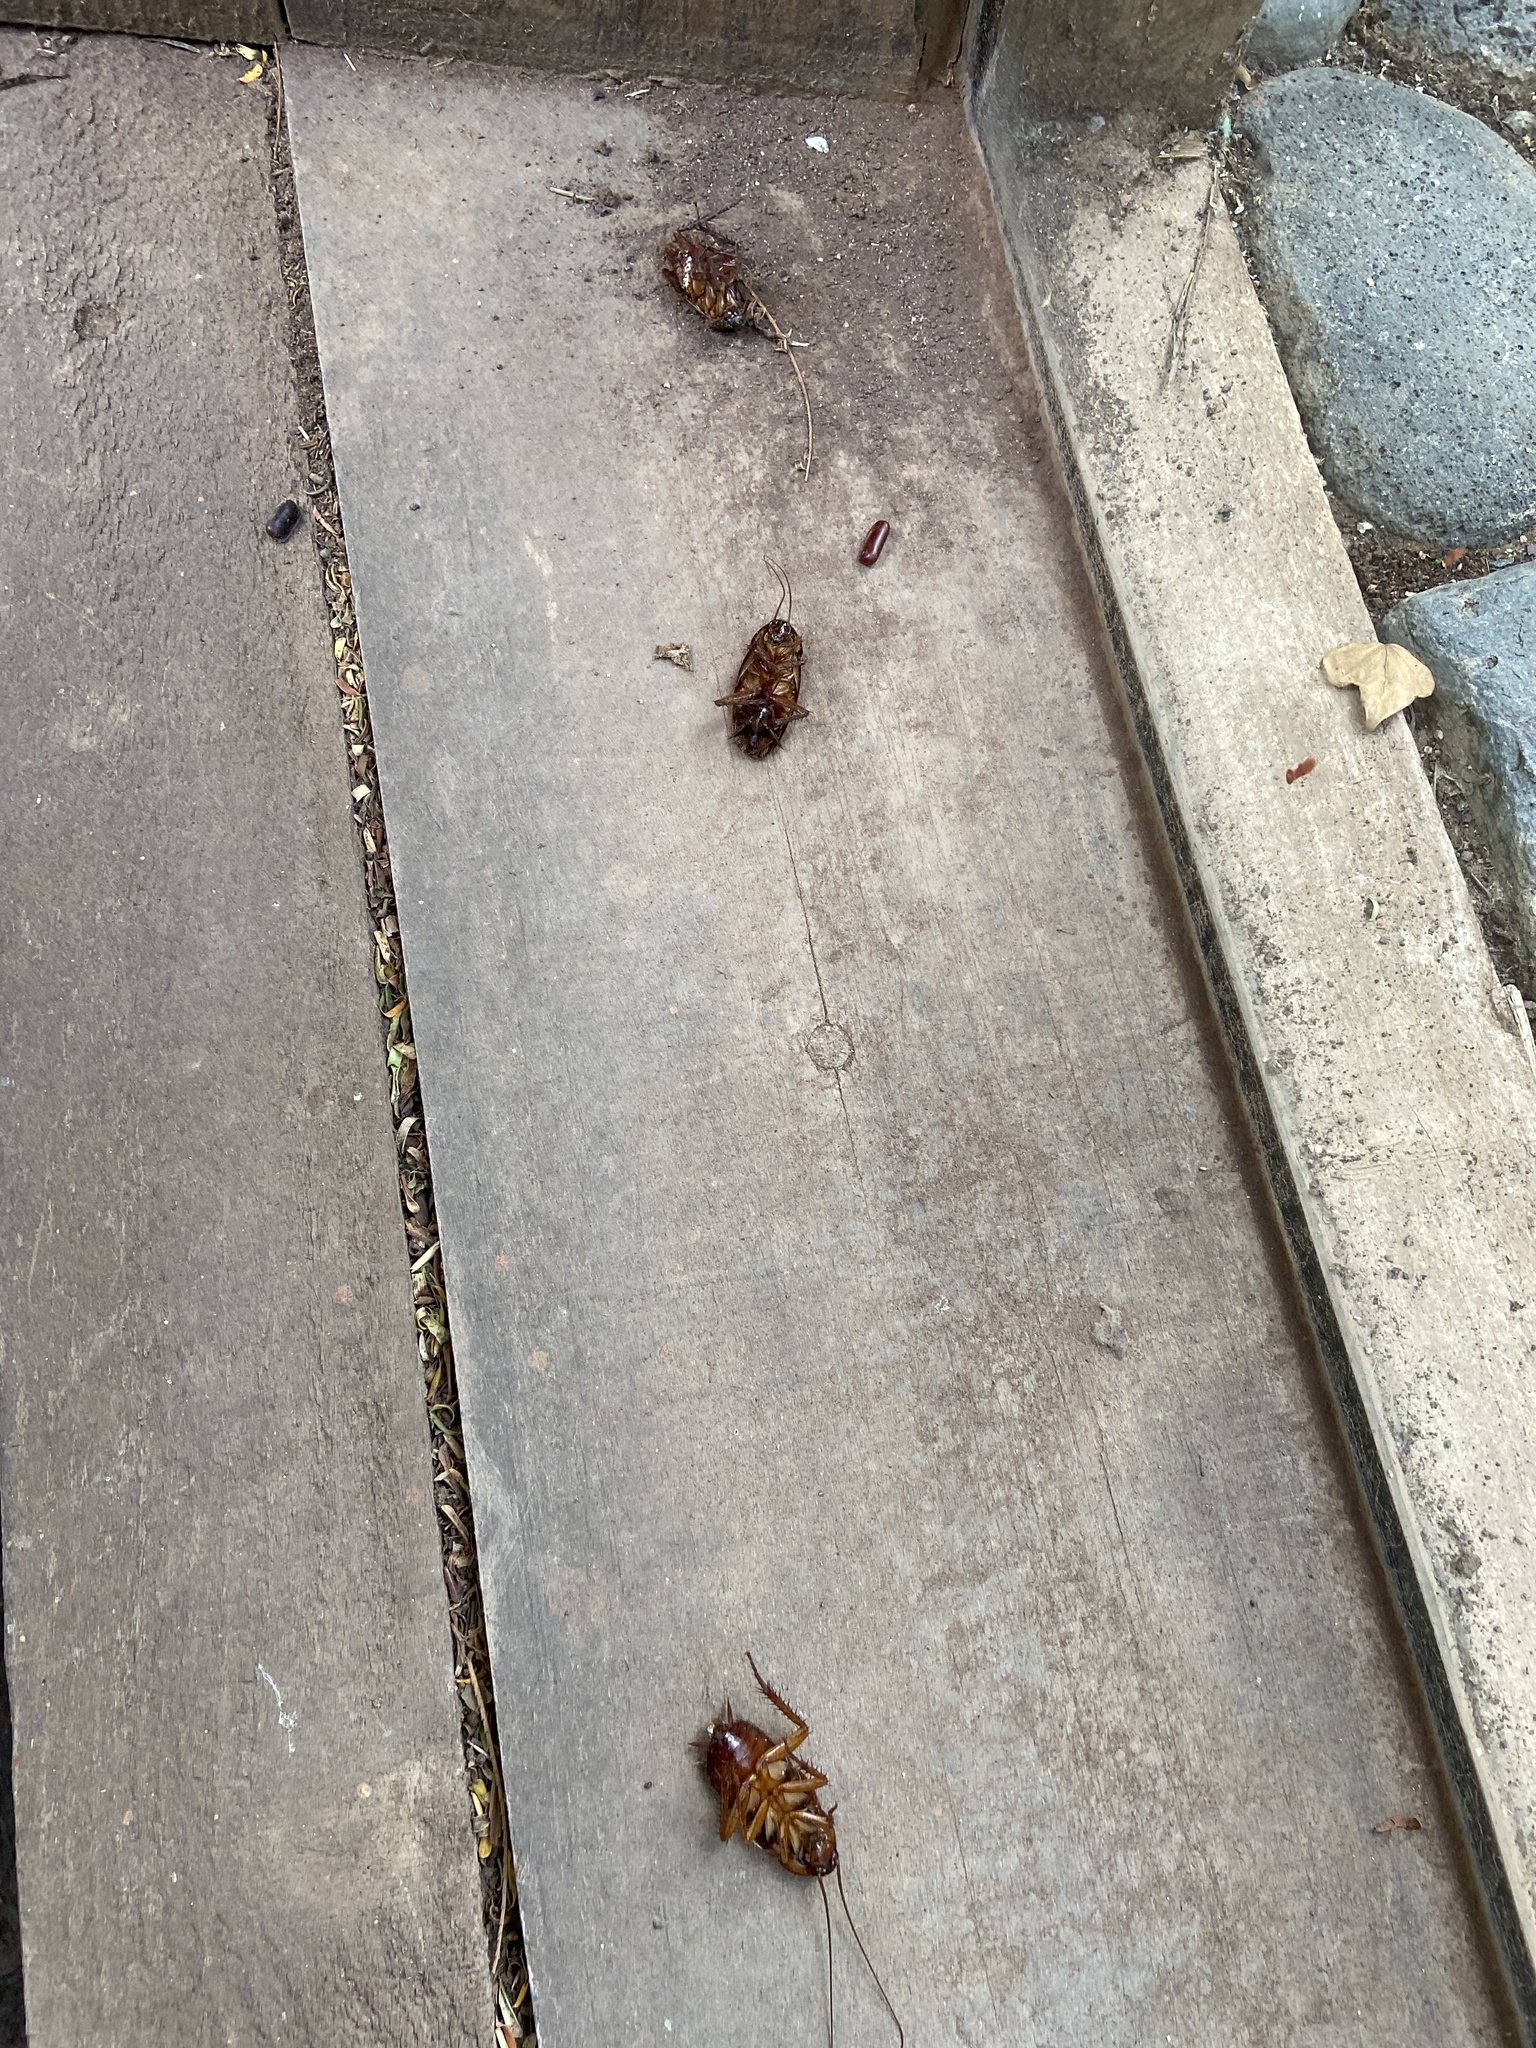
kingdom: Animalia
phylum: Arthropoda
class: Insecta
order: Blattodea
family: Blattidae
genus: Periplaneta
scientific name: Periplaneta americana
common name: American cockroach
